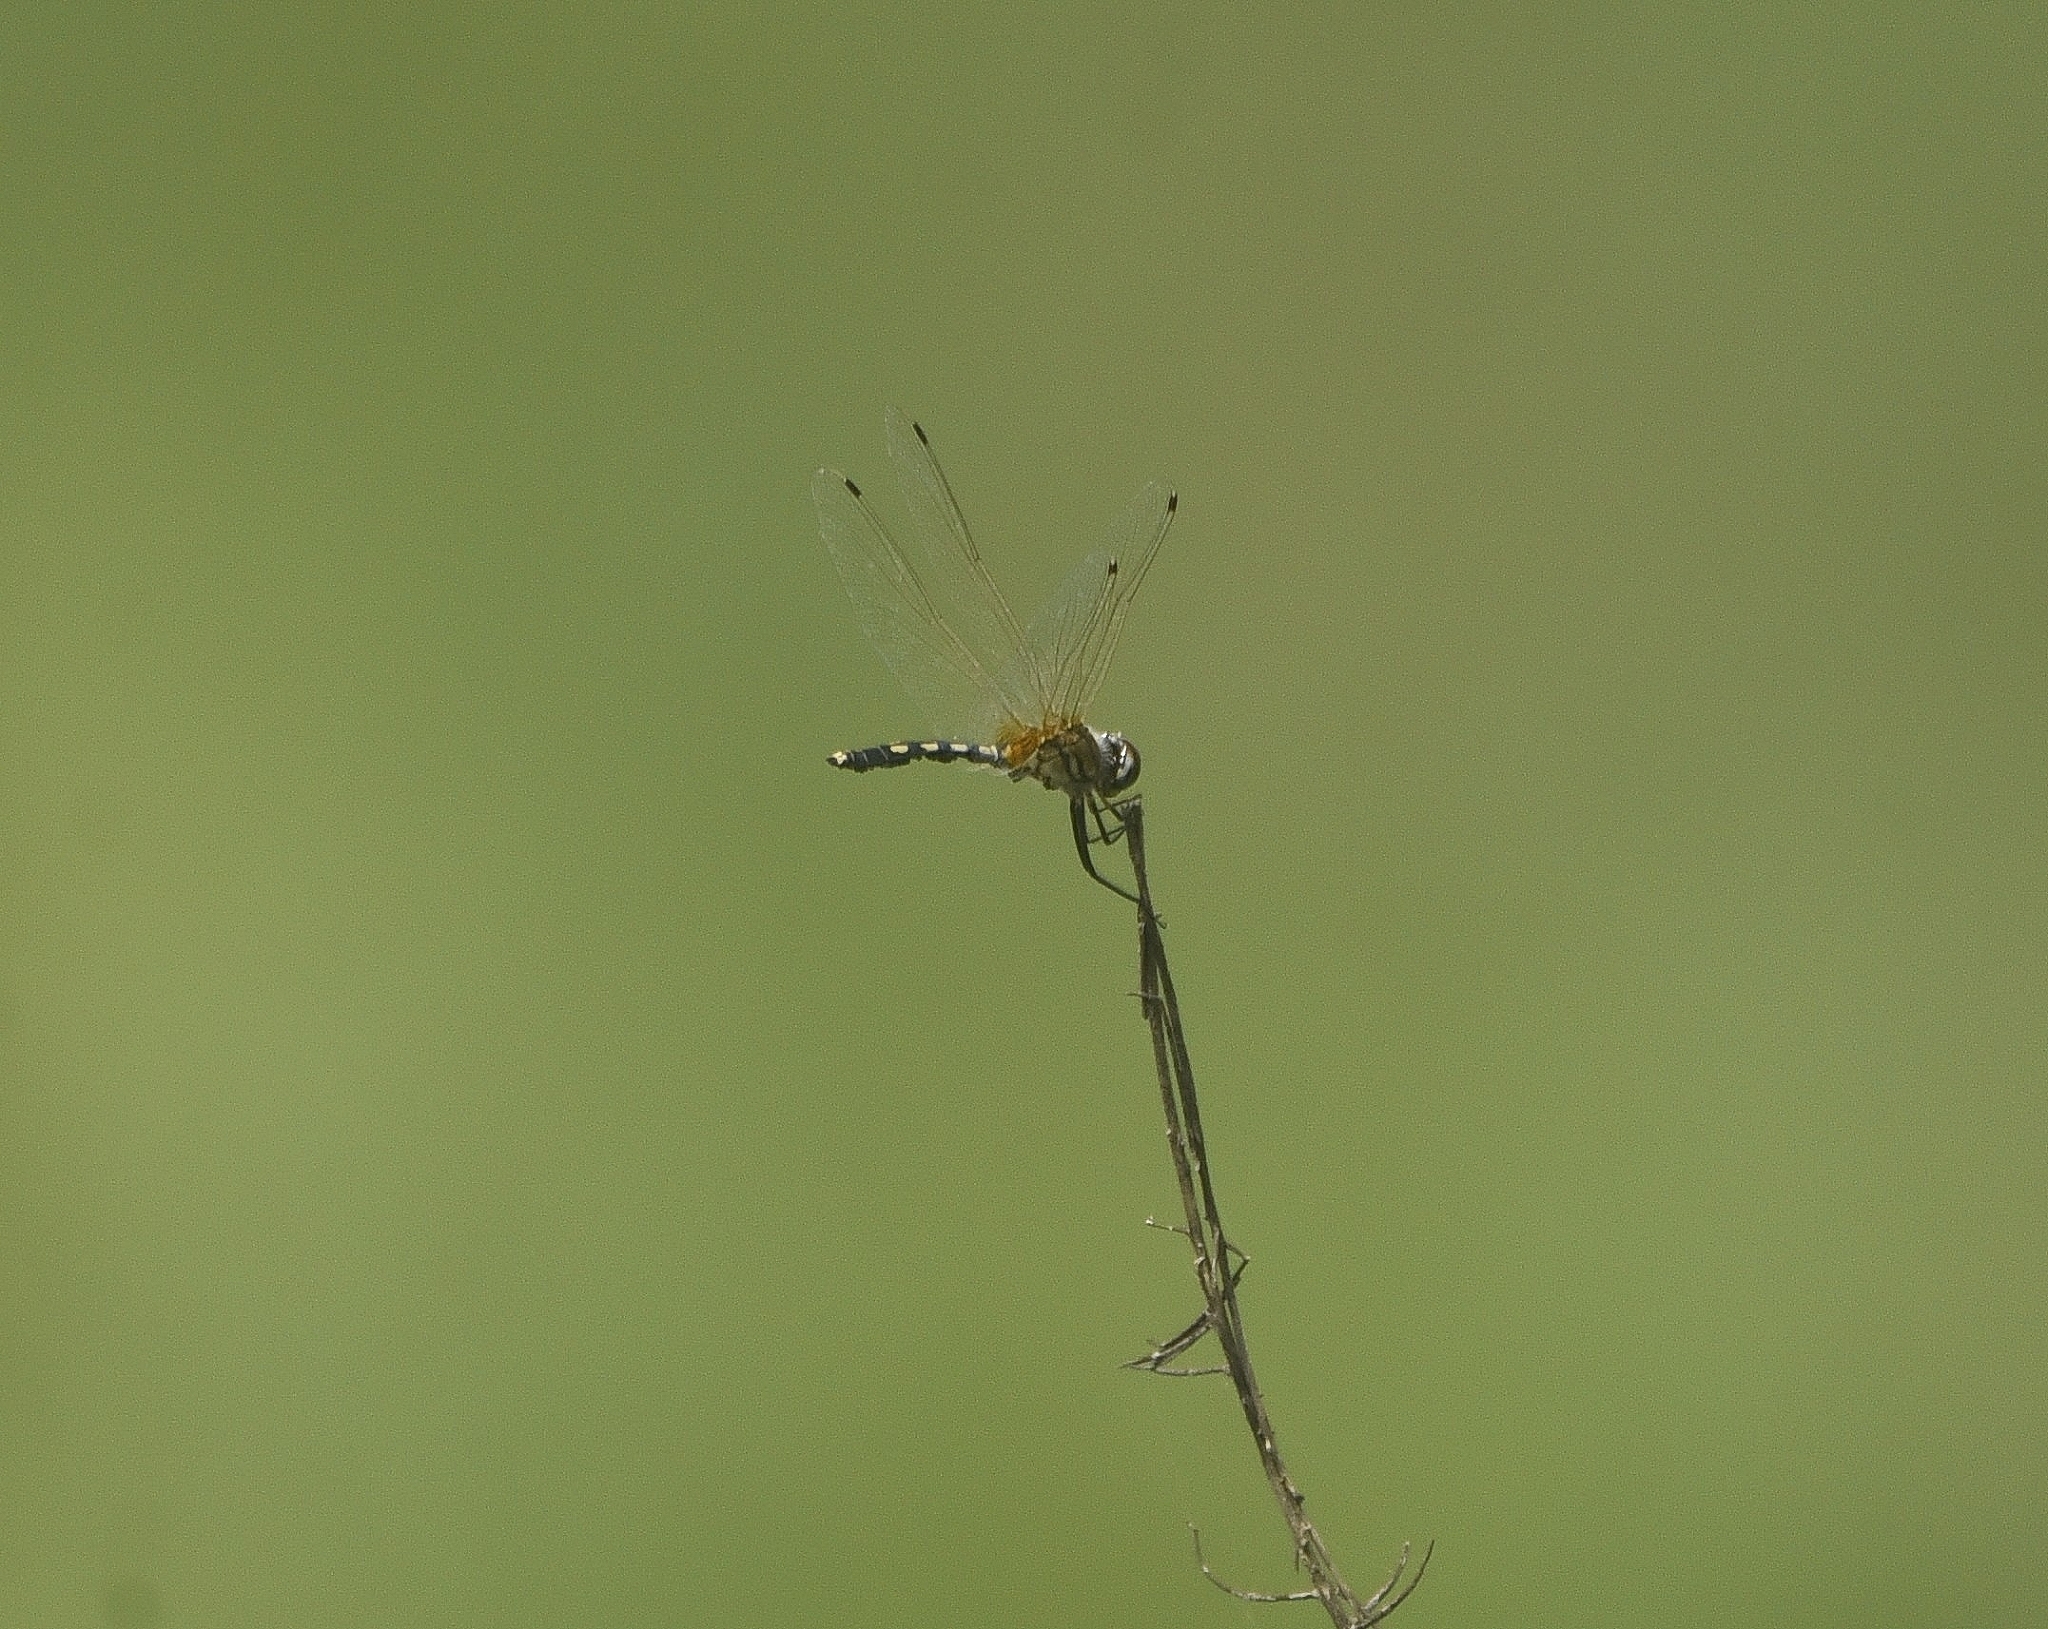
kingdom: Animalia
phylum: Arthropoda
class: Insecta
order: Odonata
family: Libellulidae
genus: Trithemis
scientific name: Trithemis pallidinervis
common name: Dancing dropwing
